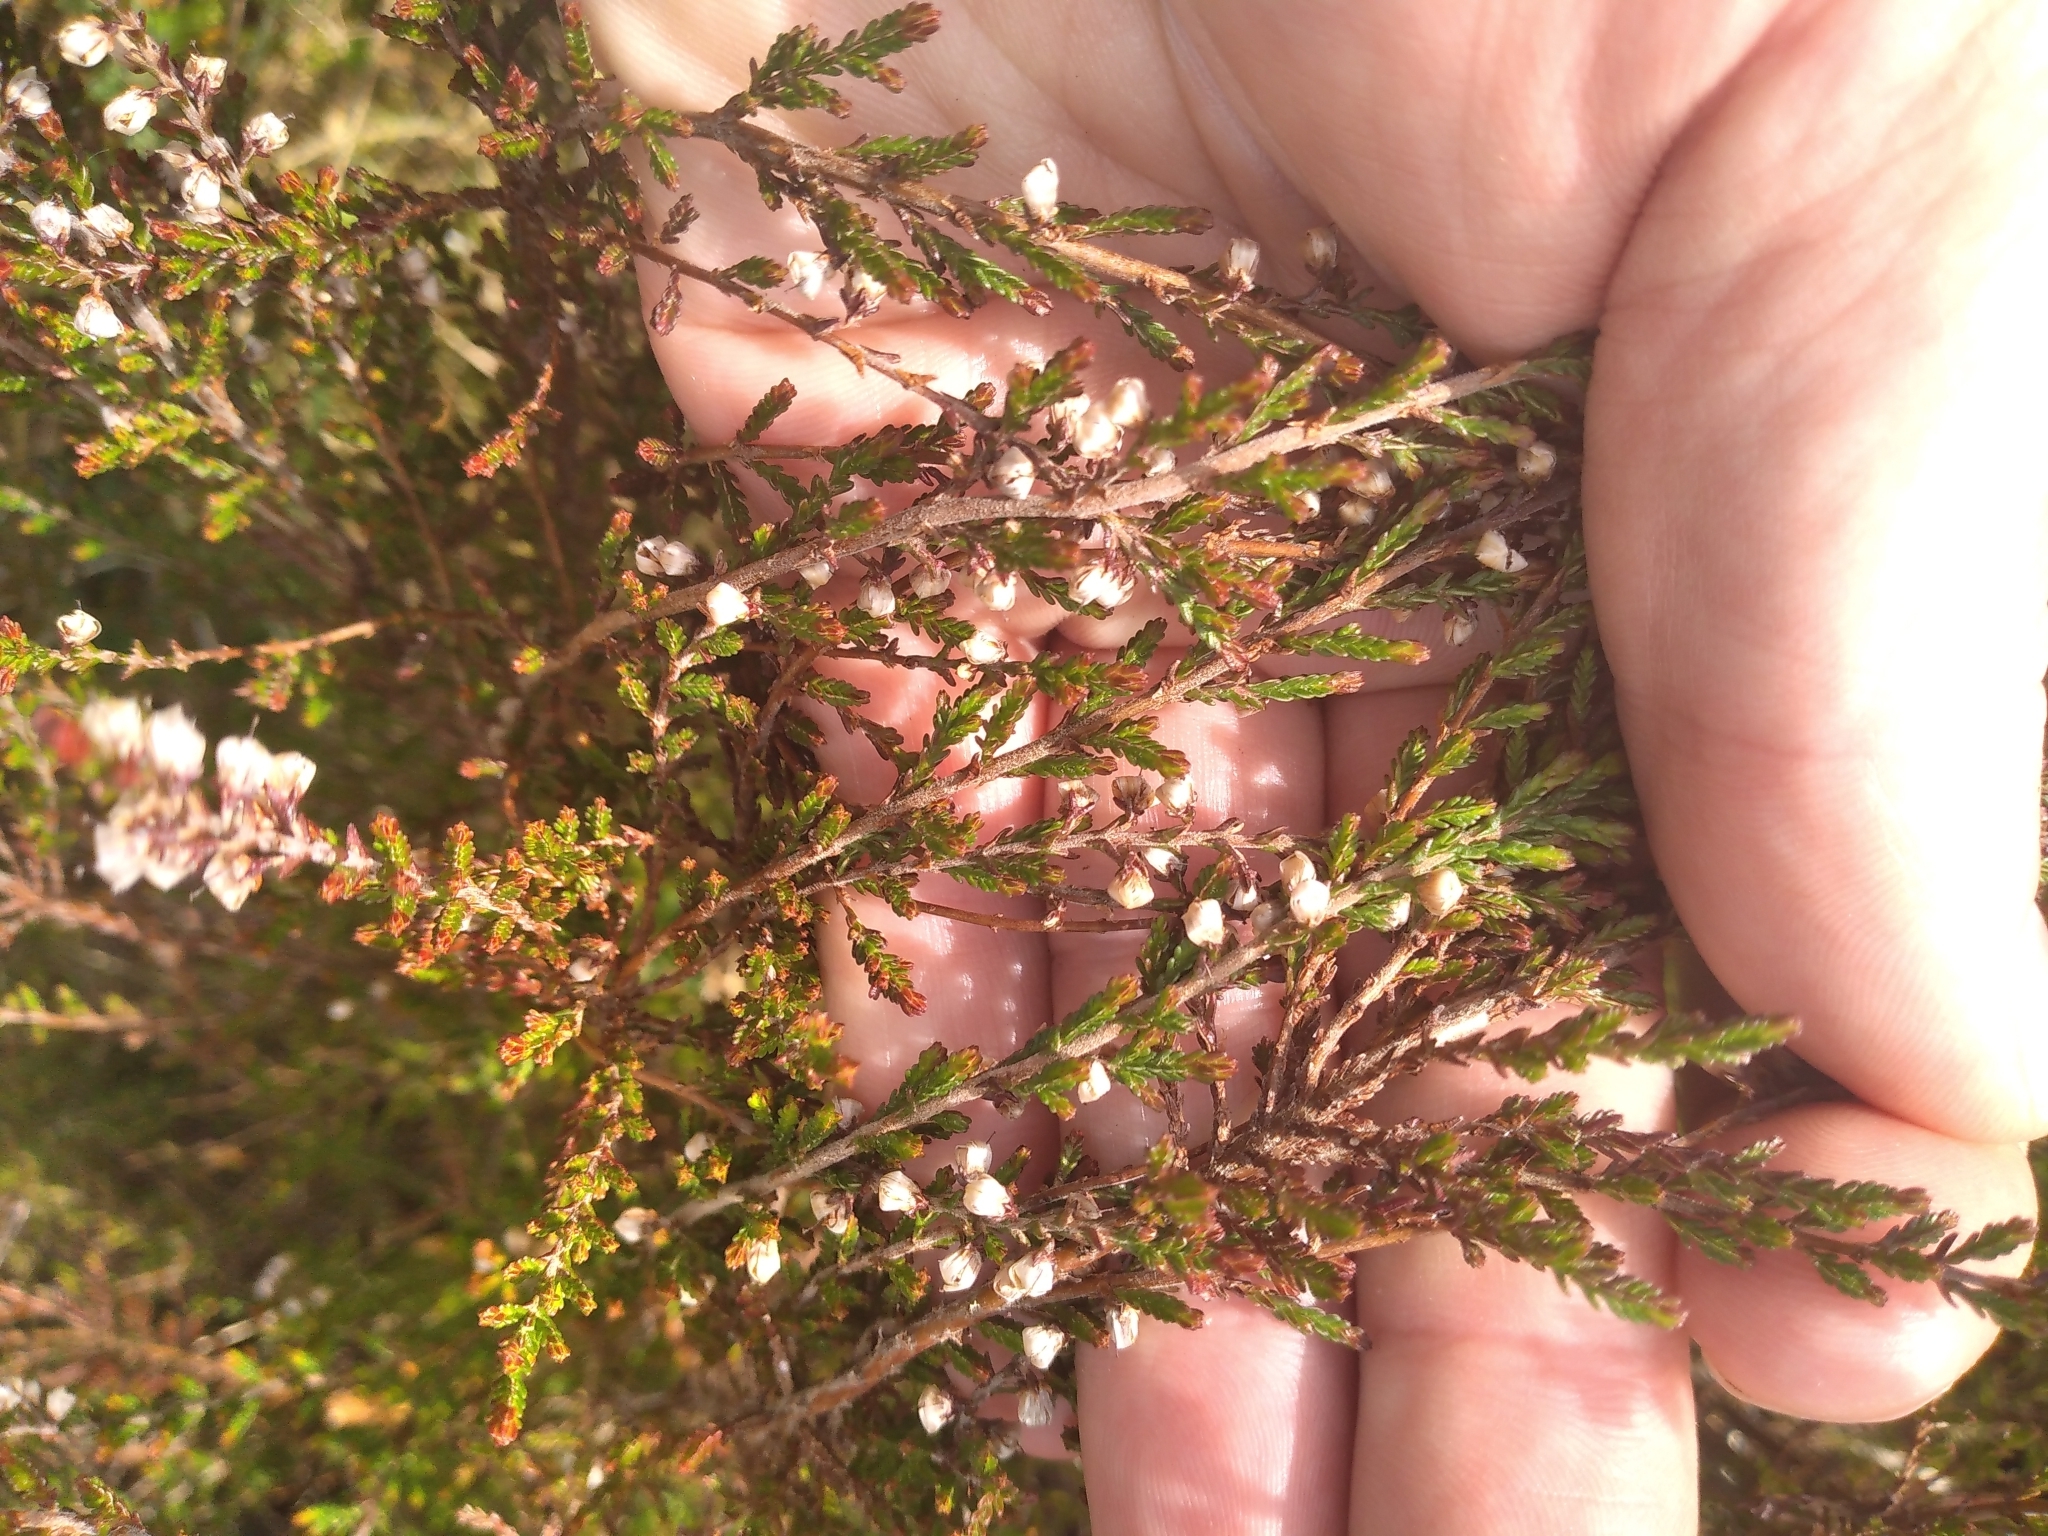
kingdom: Plantae
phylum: Tracheophyta
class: Magnoliopsida
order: Ericales
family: Ericaceae
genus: Calluna
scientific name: Calluna vulgaris
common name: Heather
